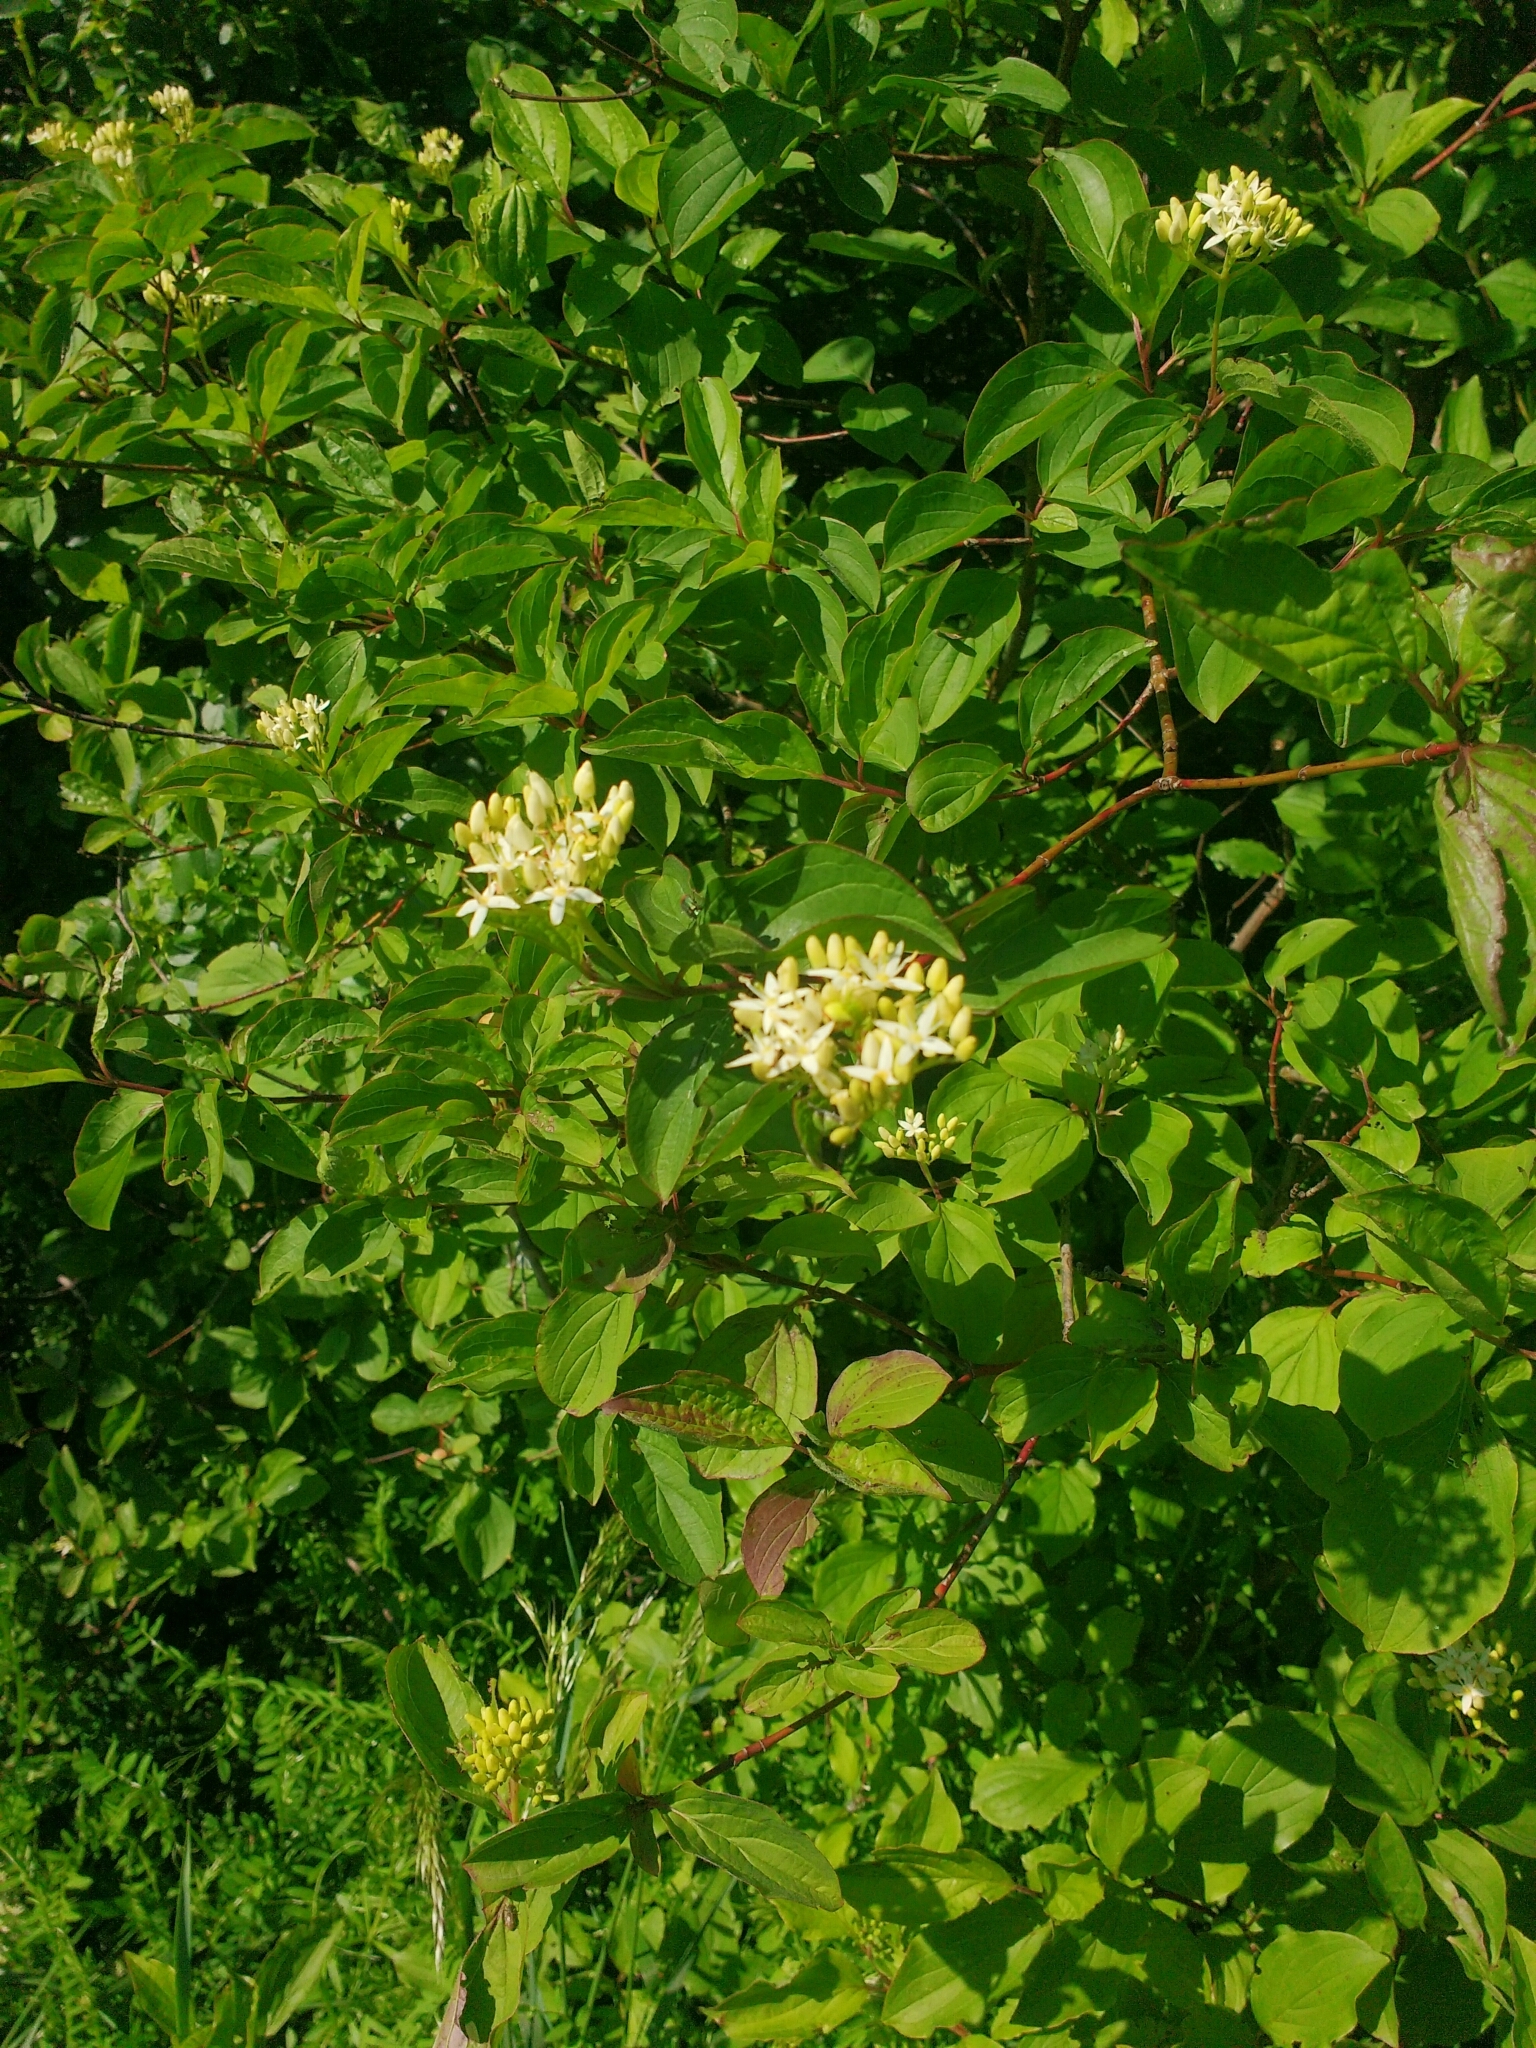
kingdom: Plantae
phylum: Tracheophyta
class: Magnoliopsida
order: Cornales
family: Cornaceae
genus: Cornus
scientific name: Cornus sanguinea
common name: Dogwood
